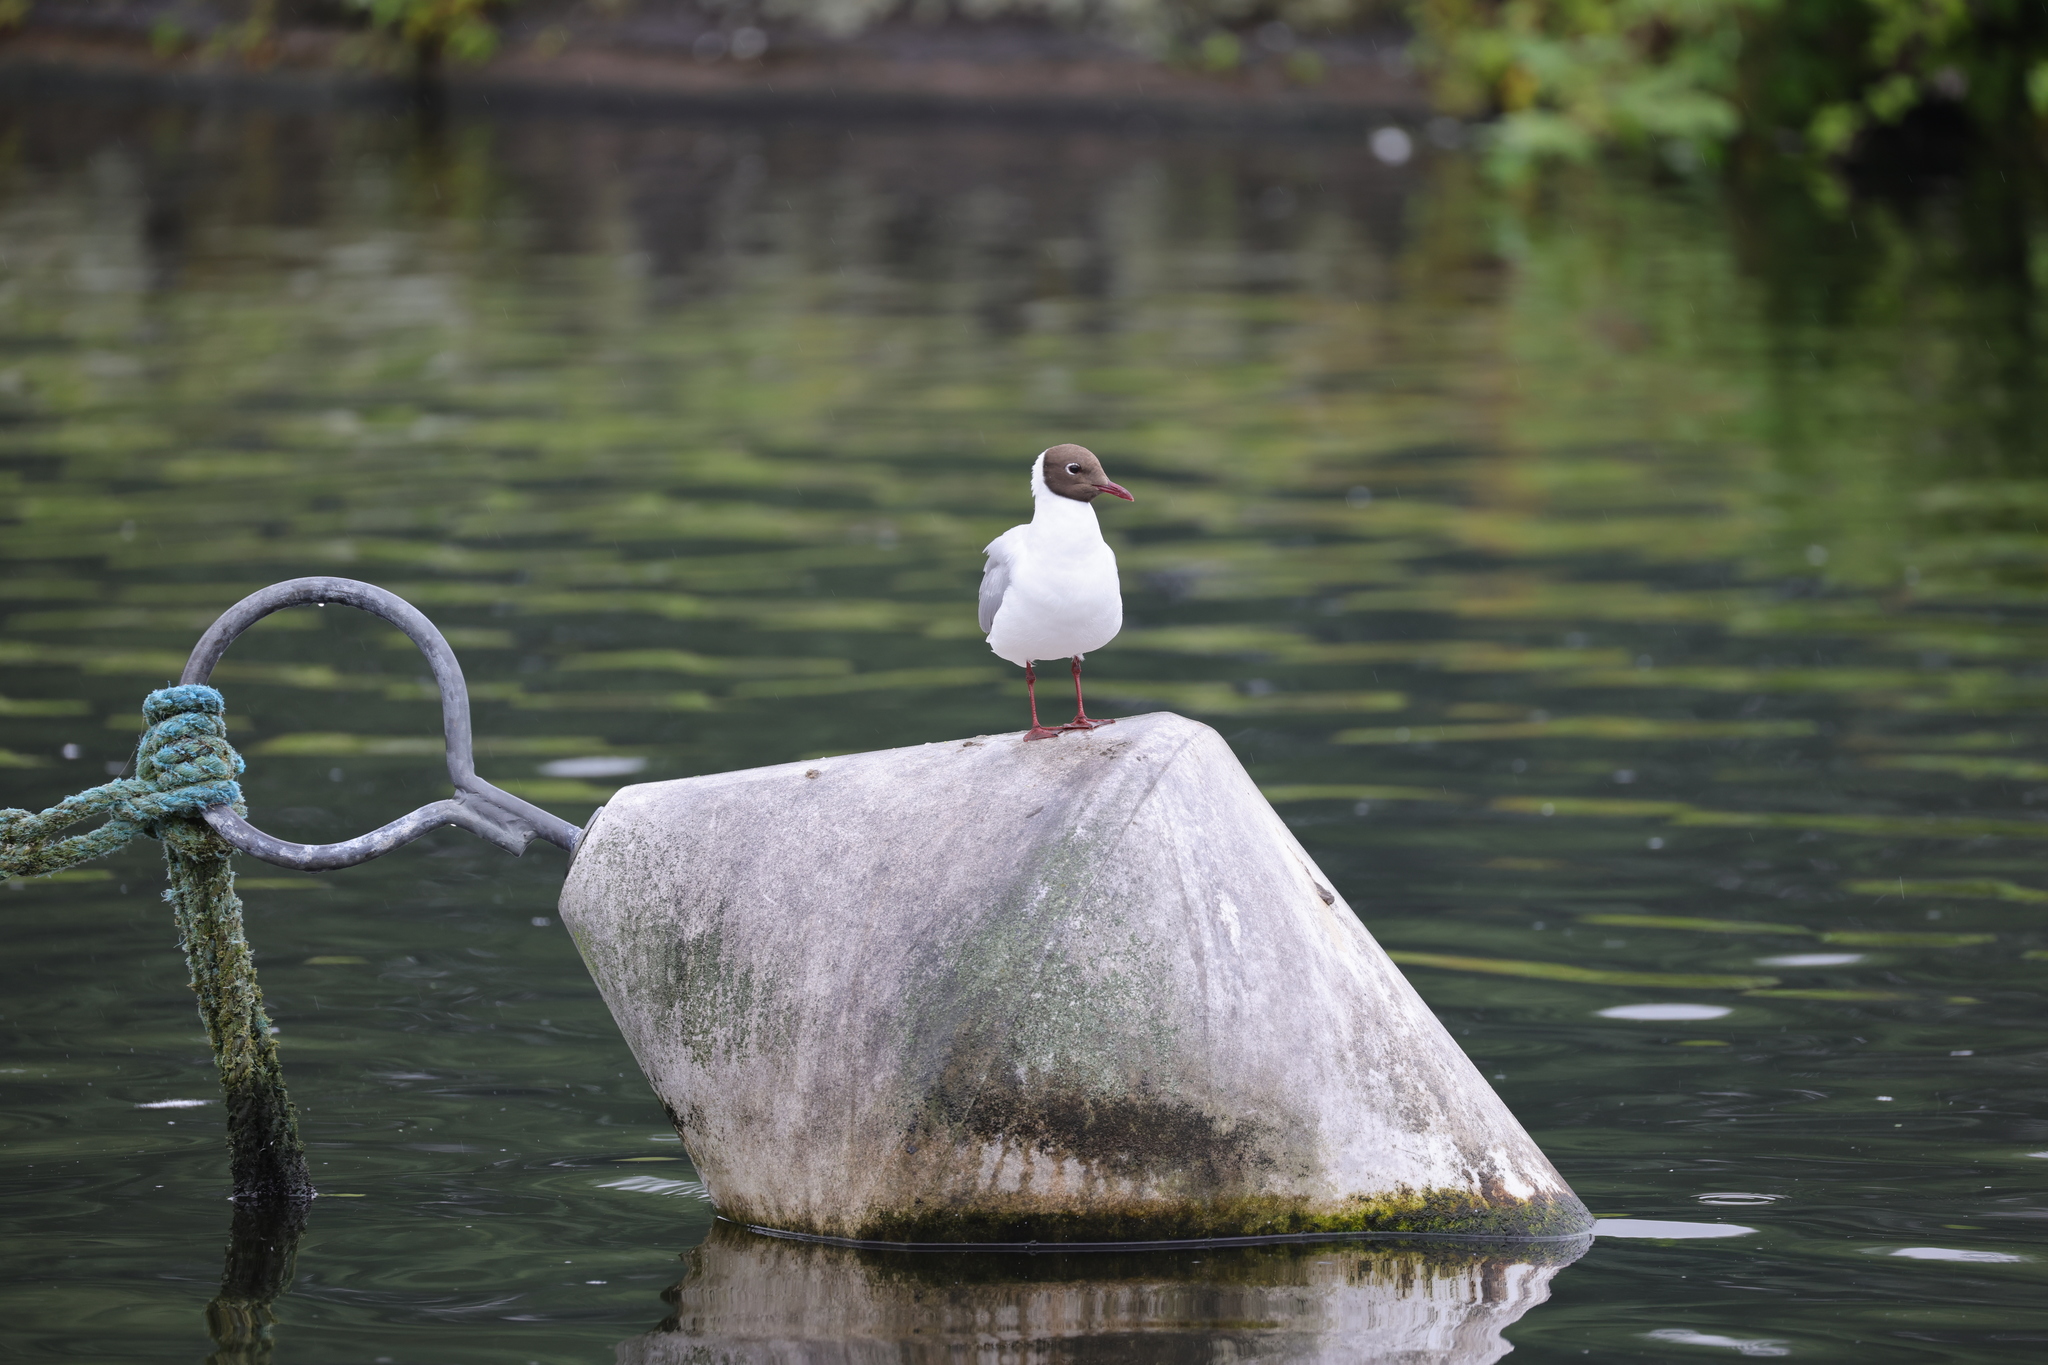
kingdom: Animalia
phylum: Chordata
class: Aves
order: Charadriiformes
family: Laridae
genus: Chroicocephalus
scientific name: Chroicocephalus ridibundus
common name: Black-headed gull
